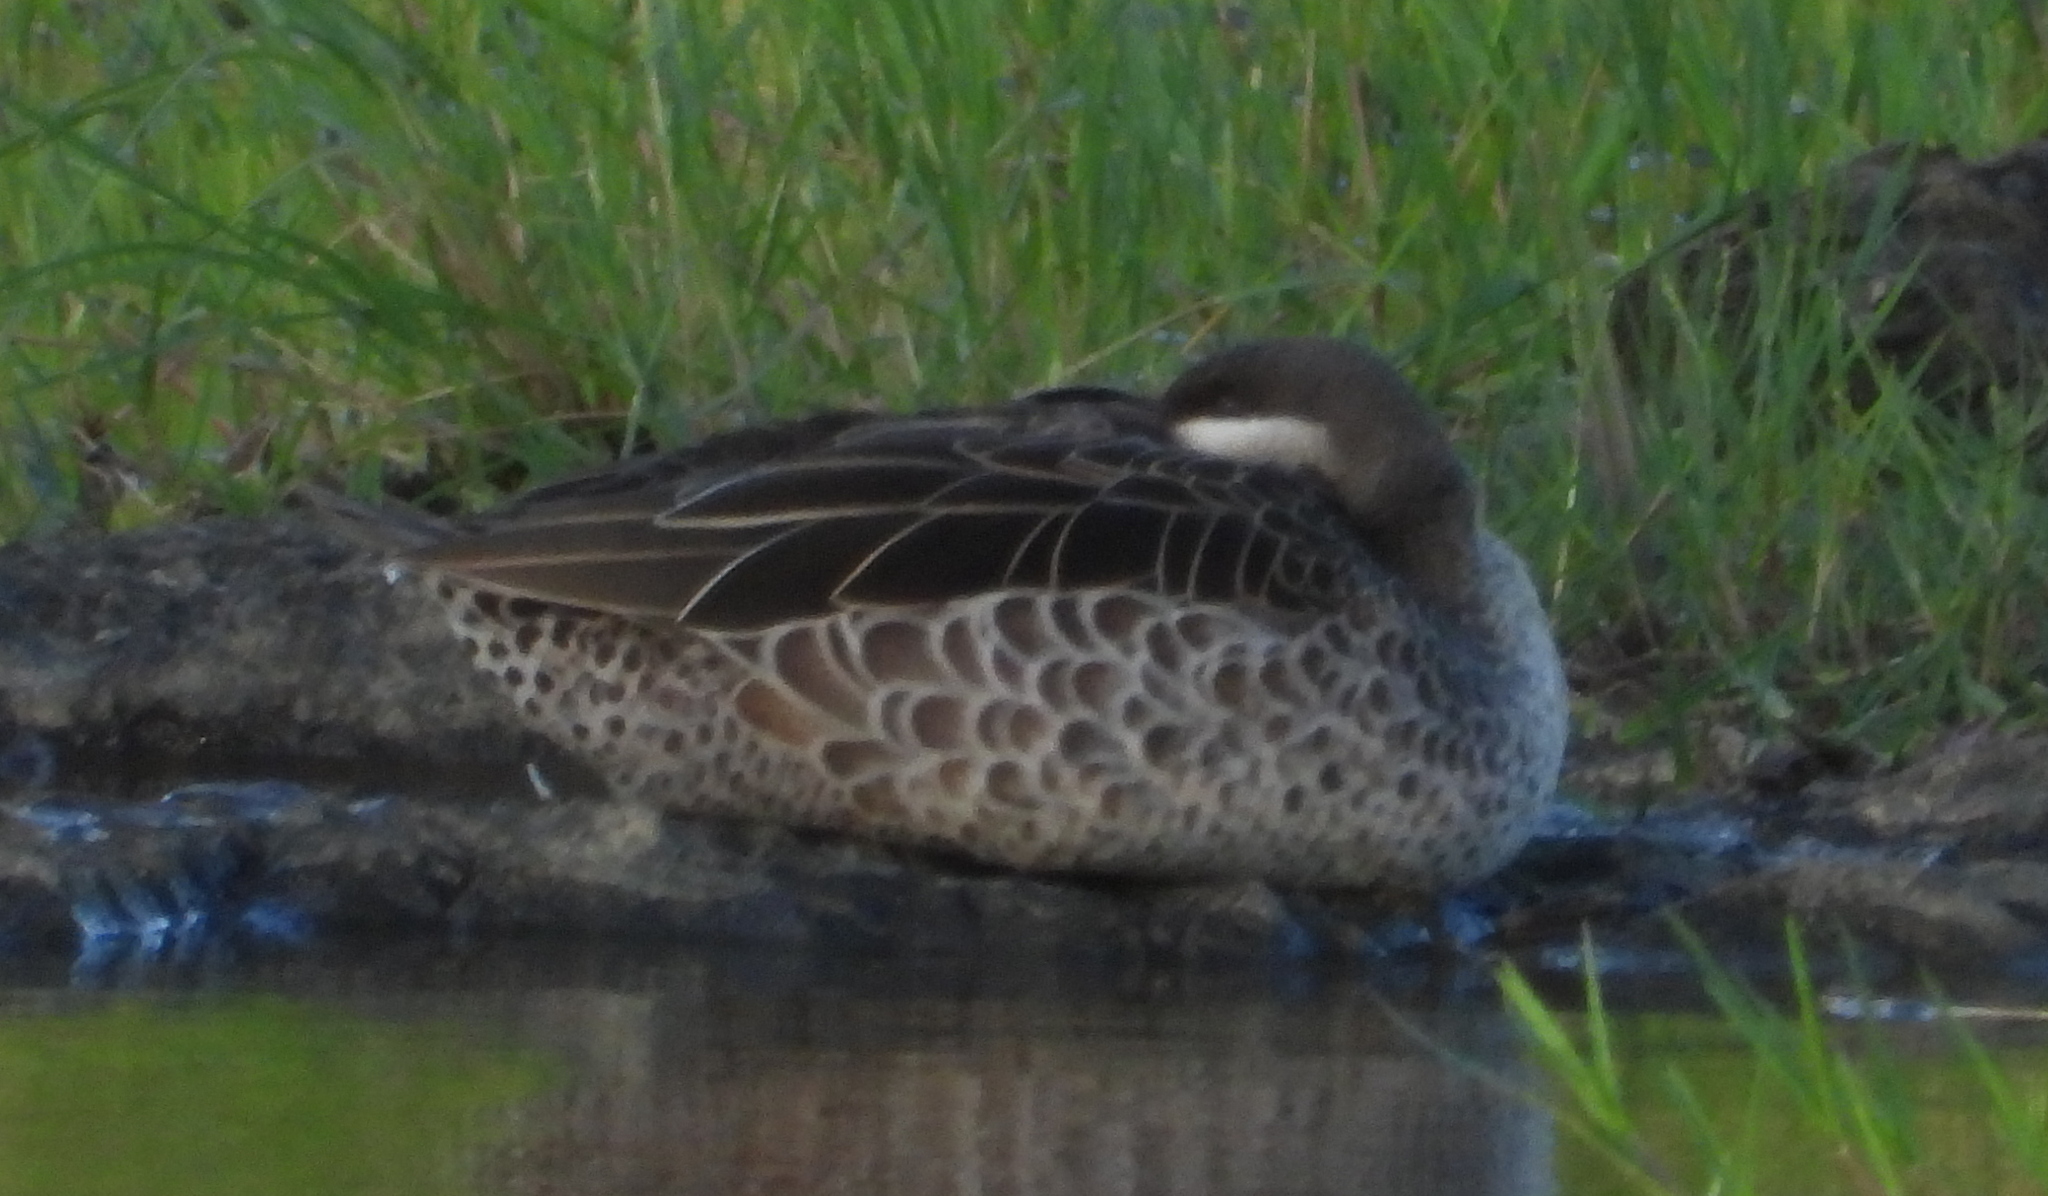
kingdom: Animalia
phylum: Chordata
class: Aves
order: Anseriformes
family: Anatidae
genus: Anas
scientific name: Anas erythrorhyncha
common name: Red-billed teal
